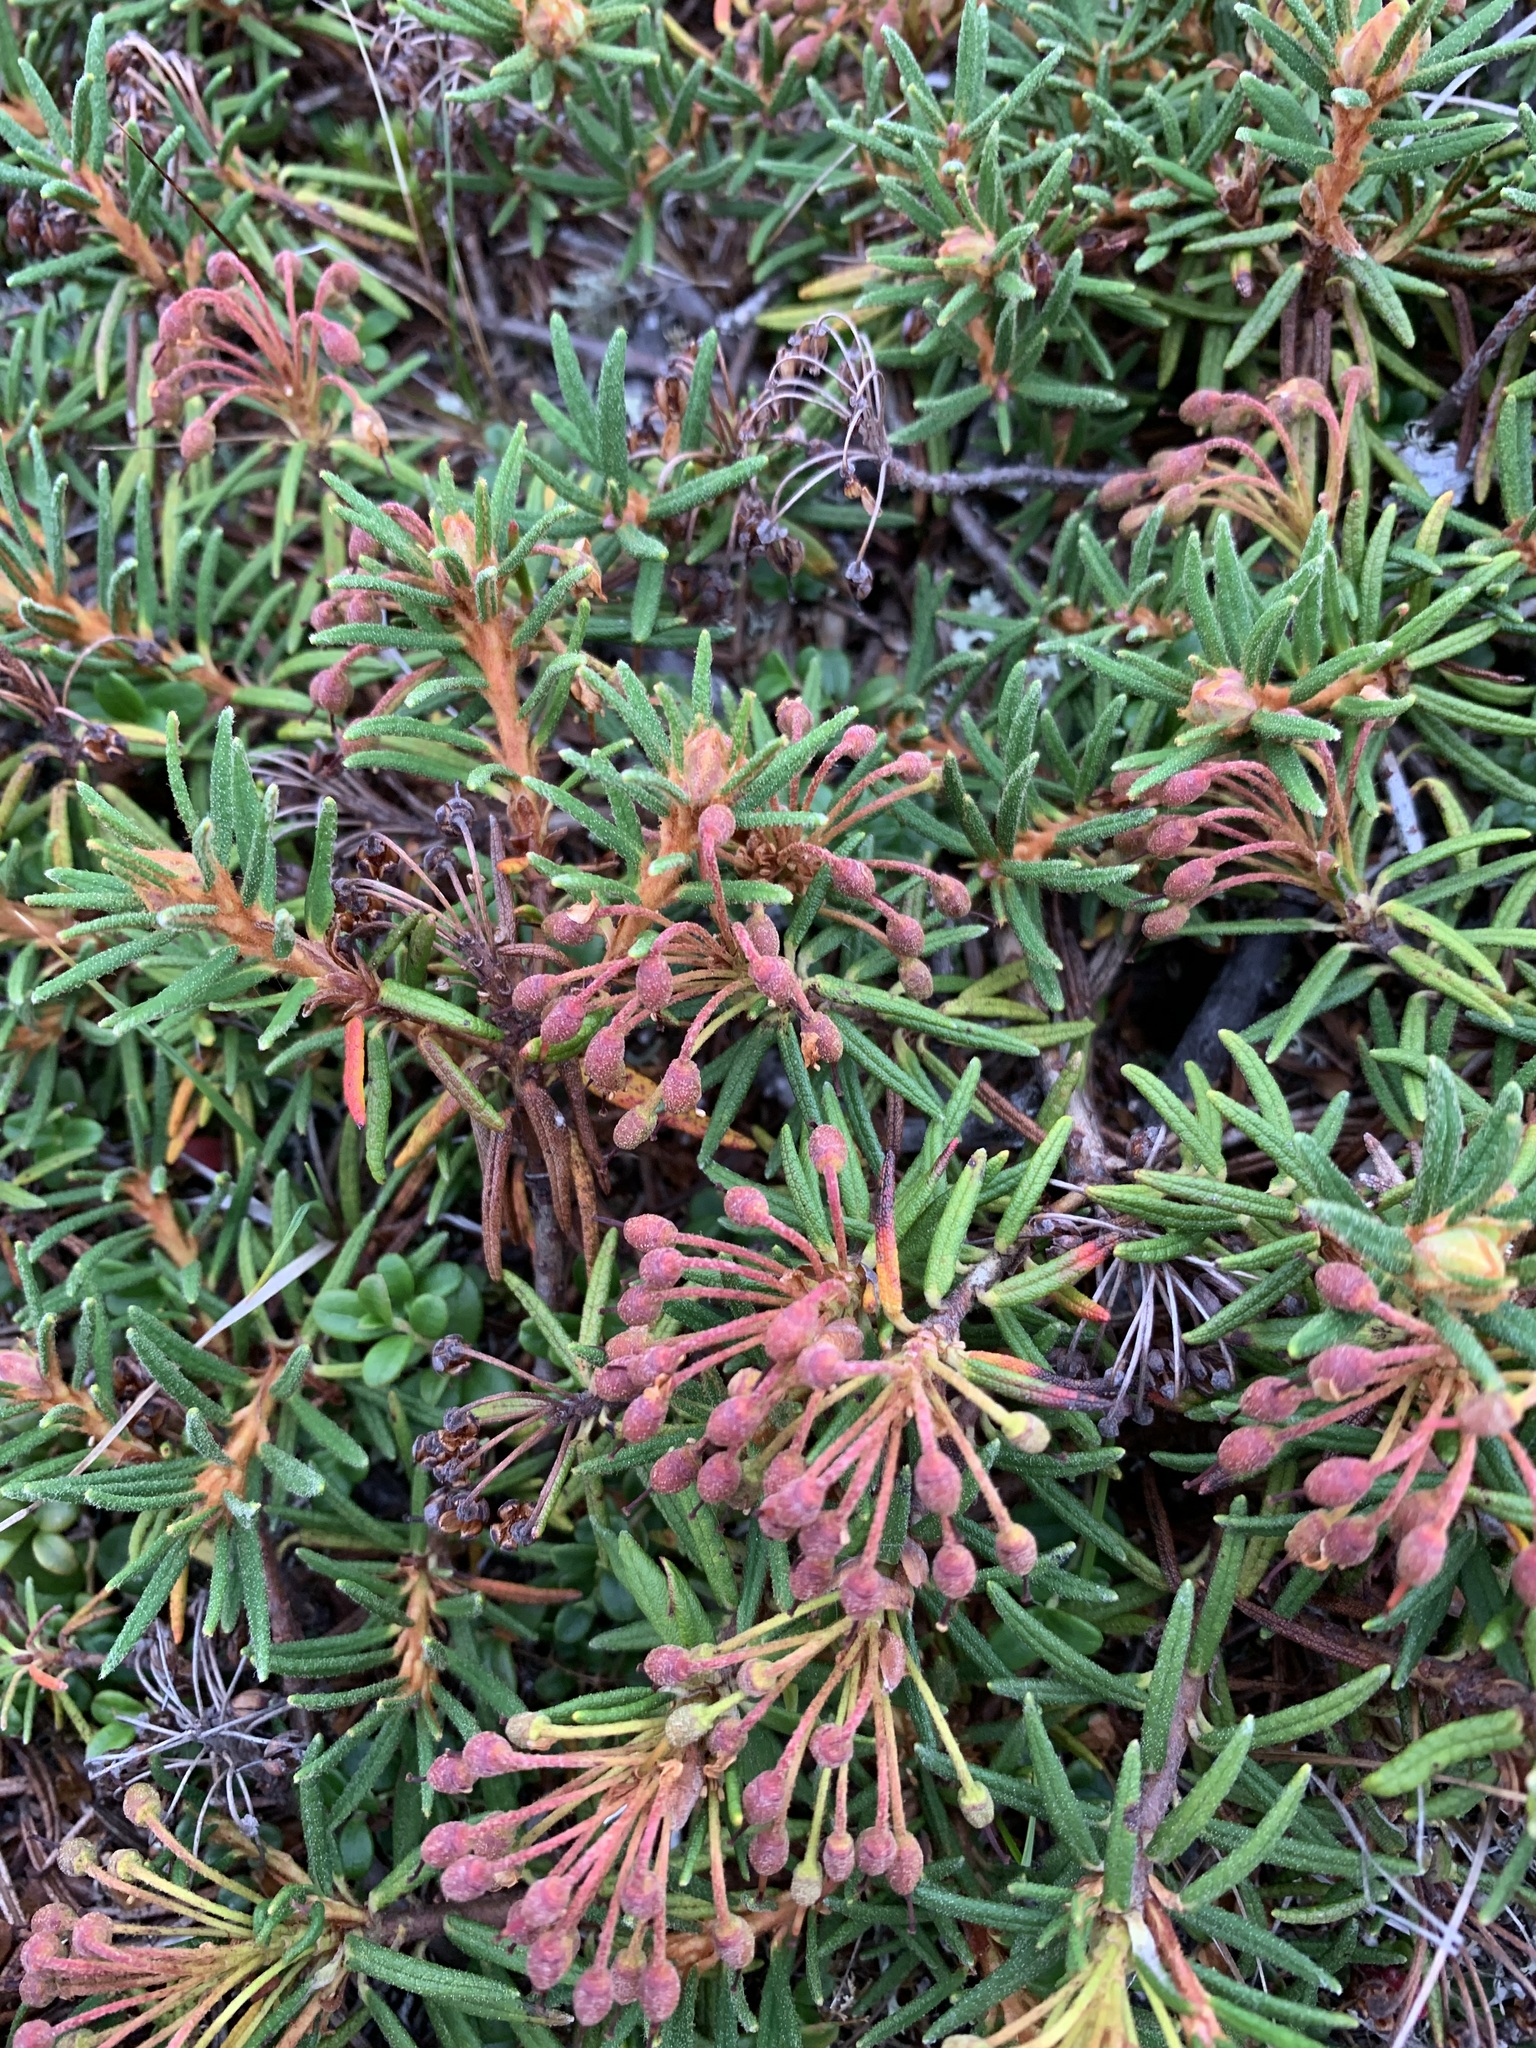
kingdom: Plantae
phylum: Tracheophyta
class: Magnoliopsida
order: Ericales
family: Ericaceae
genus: Rhododendron
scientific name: Rhododendron tomentosum
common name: Marsh labrador tea
